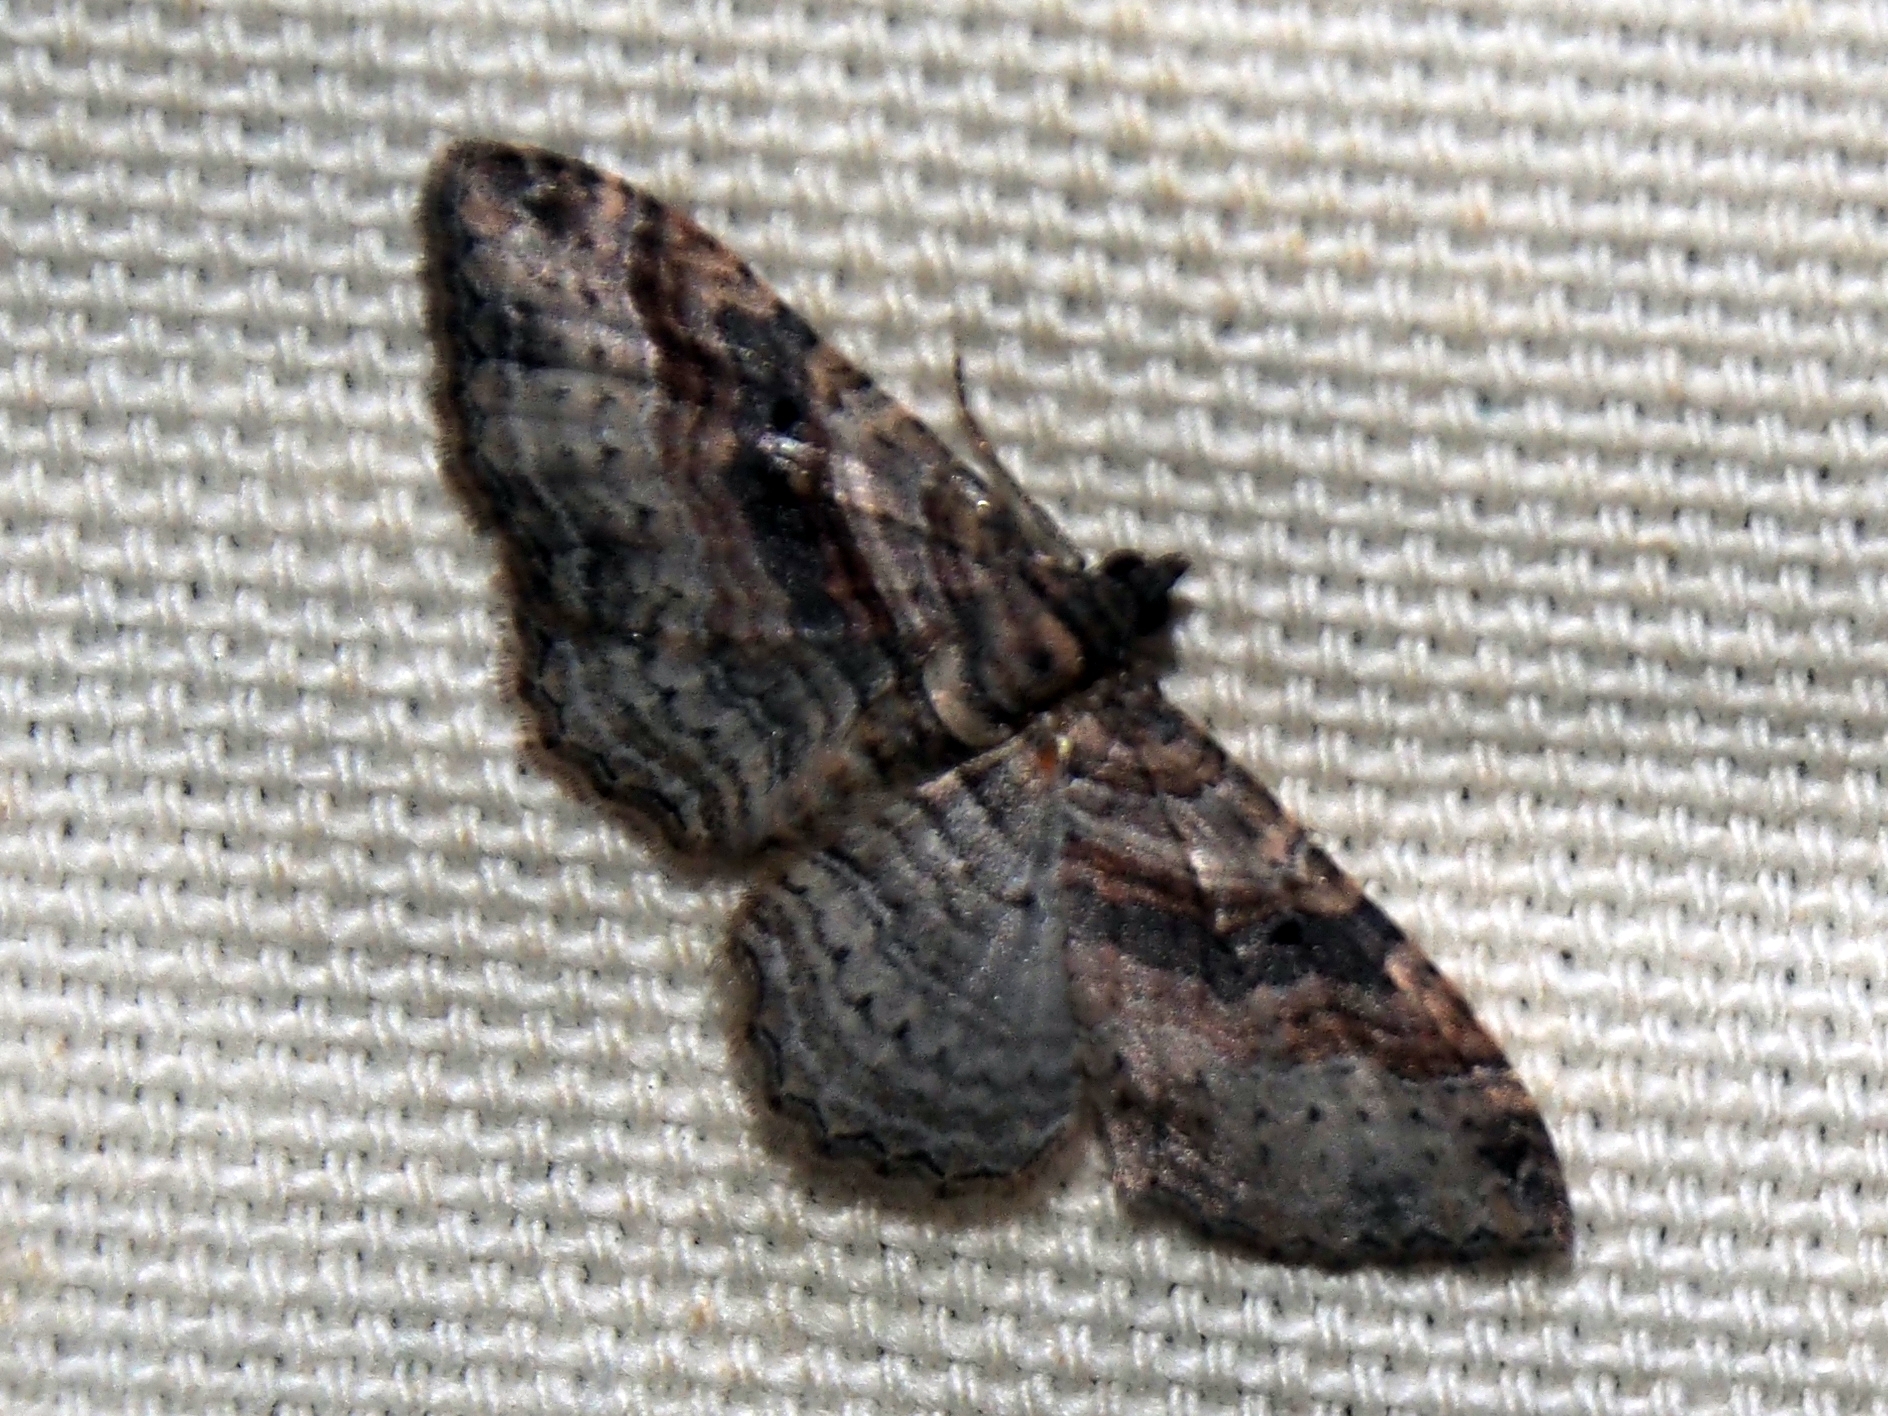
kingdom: Animalia
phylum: Arthropoda
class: Insecta
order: Lepidoptera
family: Geometridae
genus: Costaconvexa
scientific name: Costaconvexa centrostrigaria
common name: Bent-line carpet
